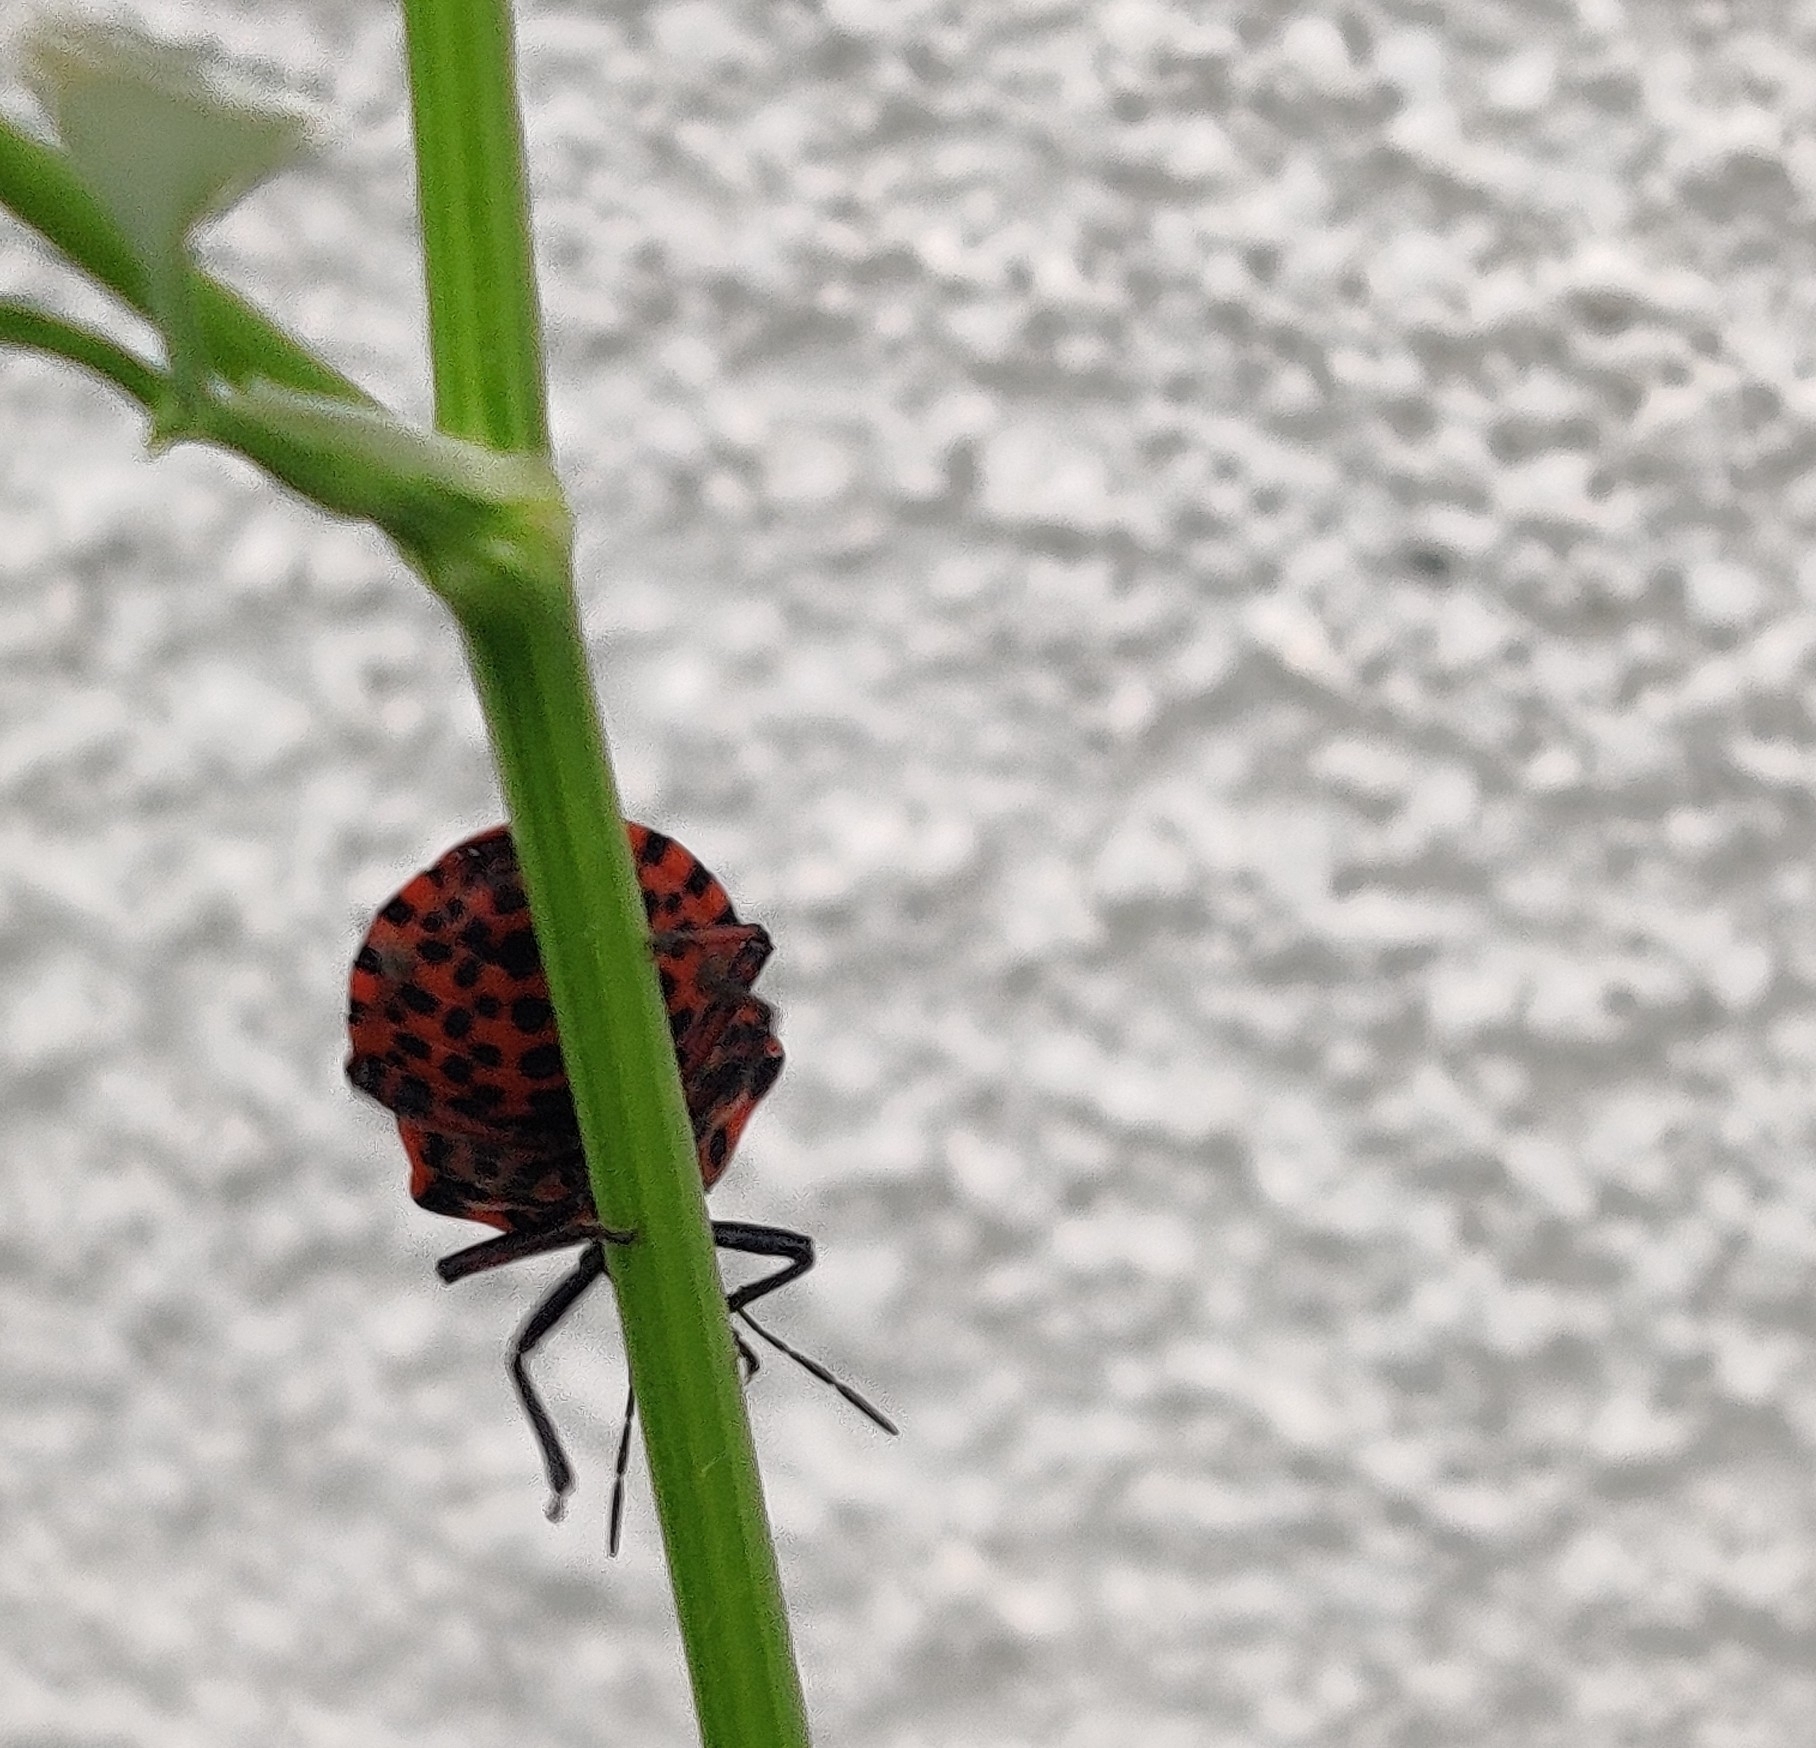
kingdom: Animalia
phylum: Arthropoda
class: Insecta
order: Hemiptera
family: Pentatomidae
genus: Graphosoma
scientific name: Graphosoma italicum
